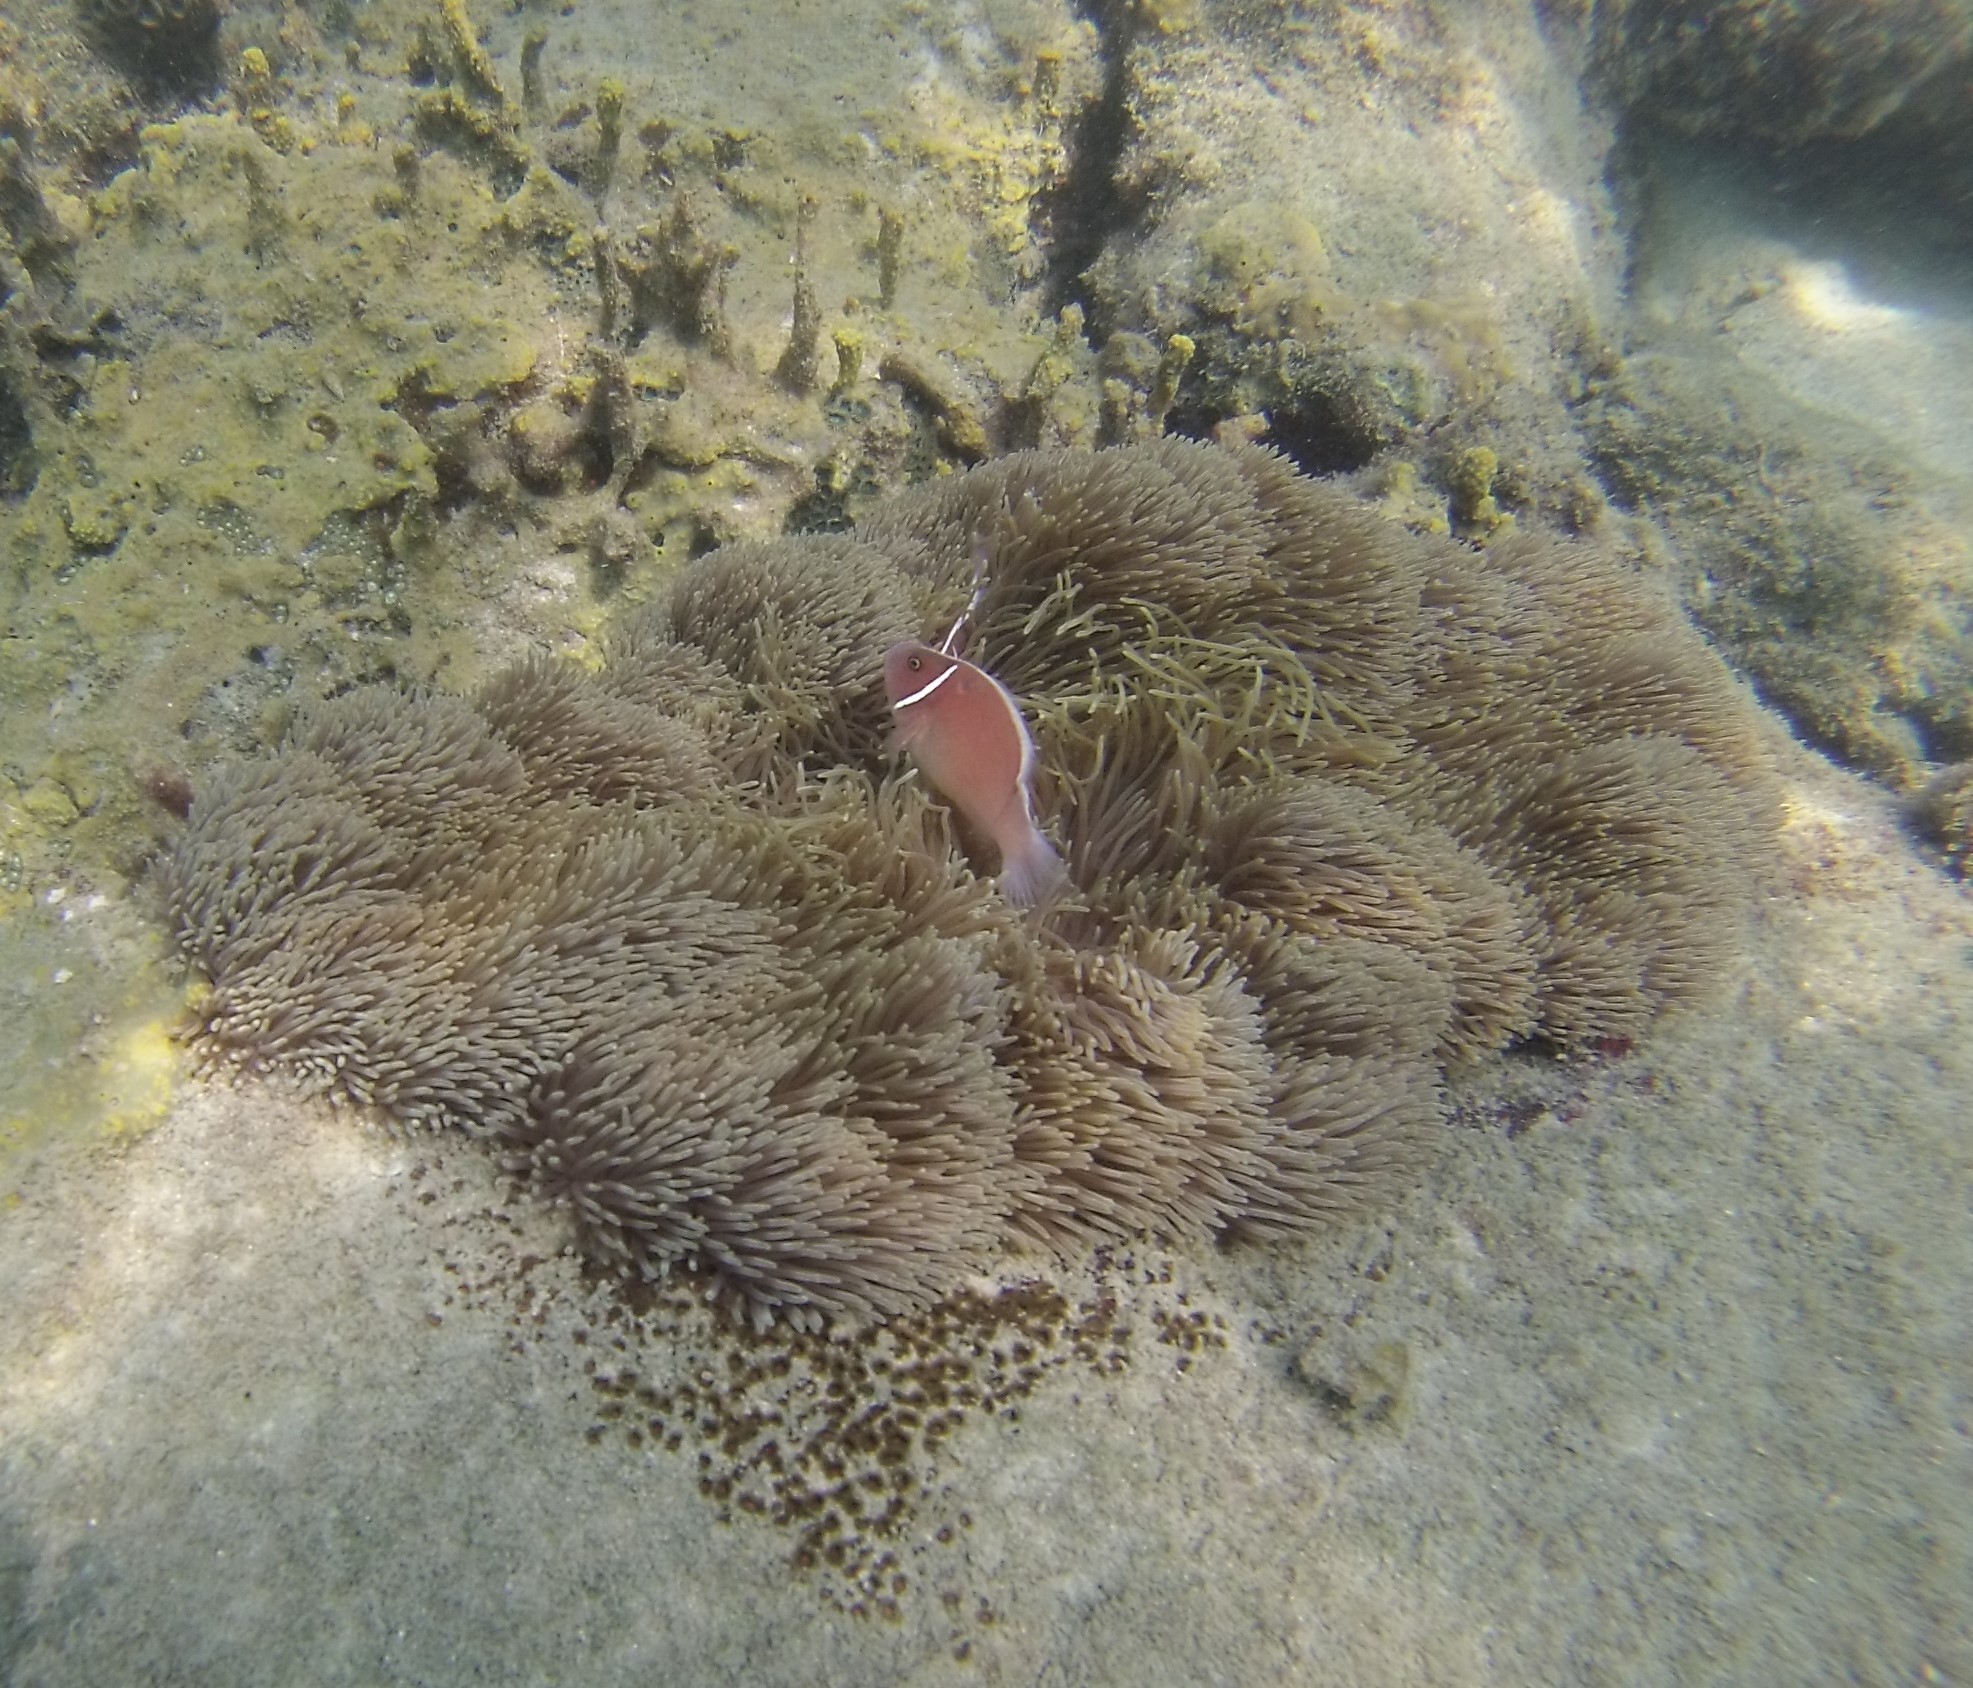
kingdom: Animalia
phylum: Chordata
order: Perciformes
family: Pomacentridae
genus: Amphiprion
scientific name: Amphiprion perideraion
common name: Pink anemonefish
